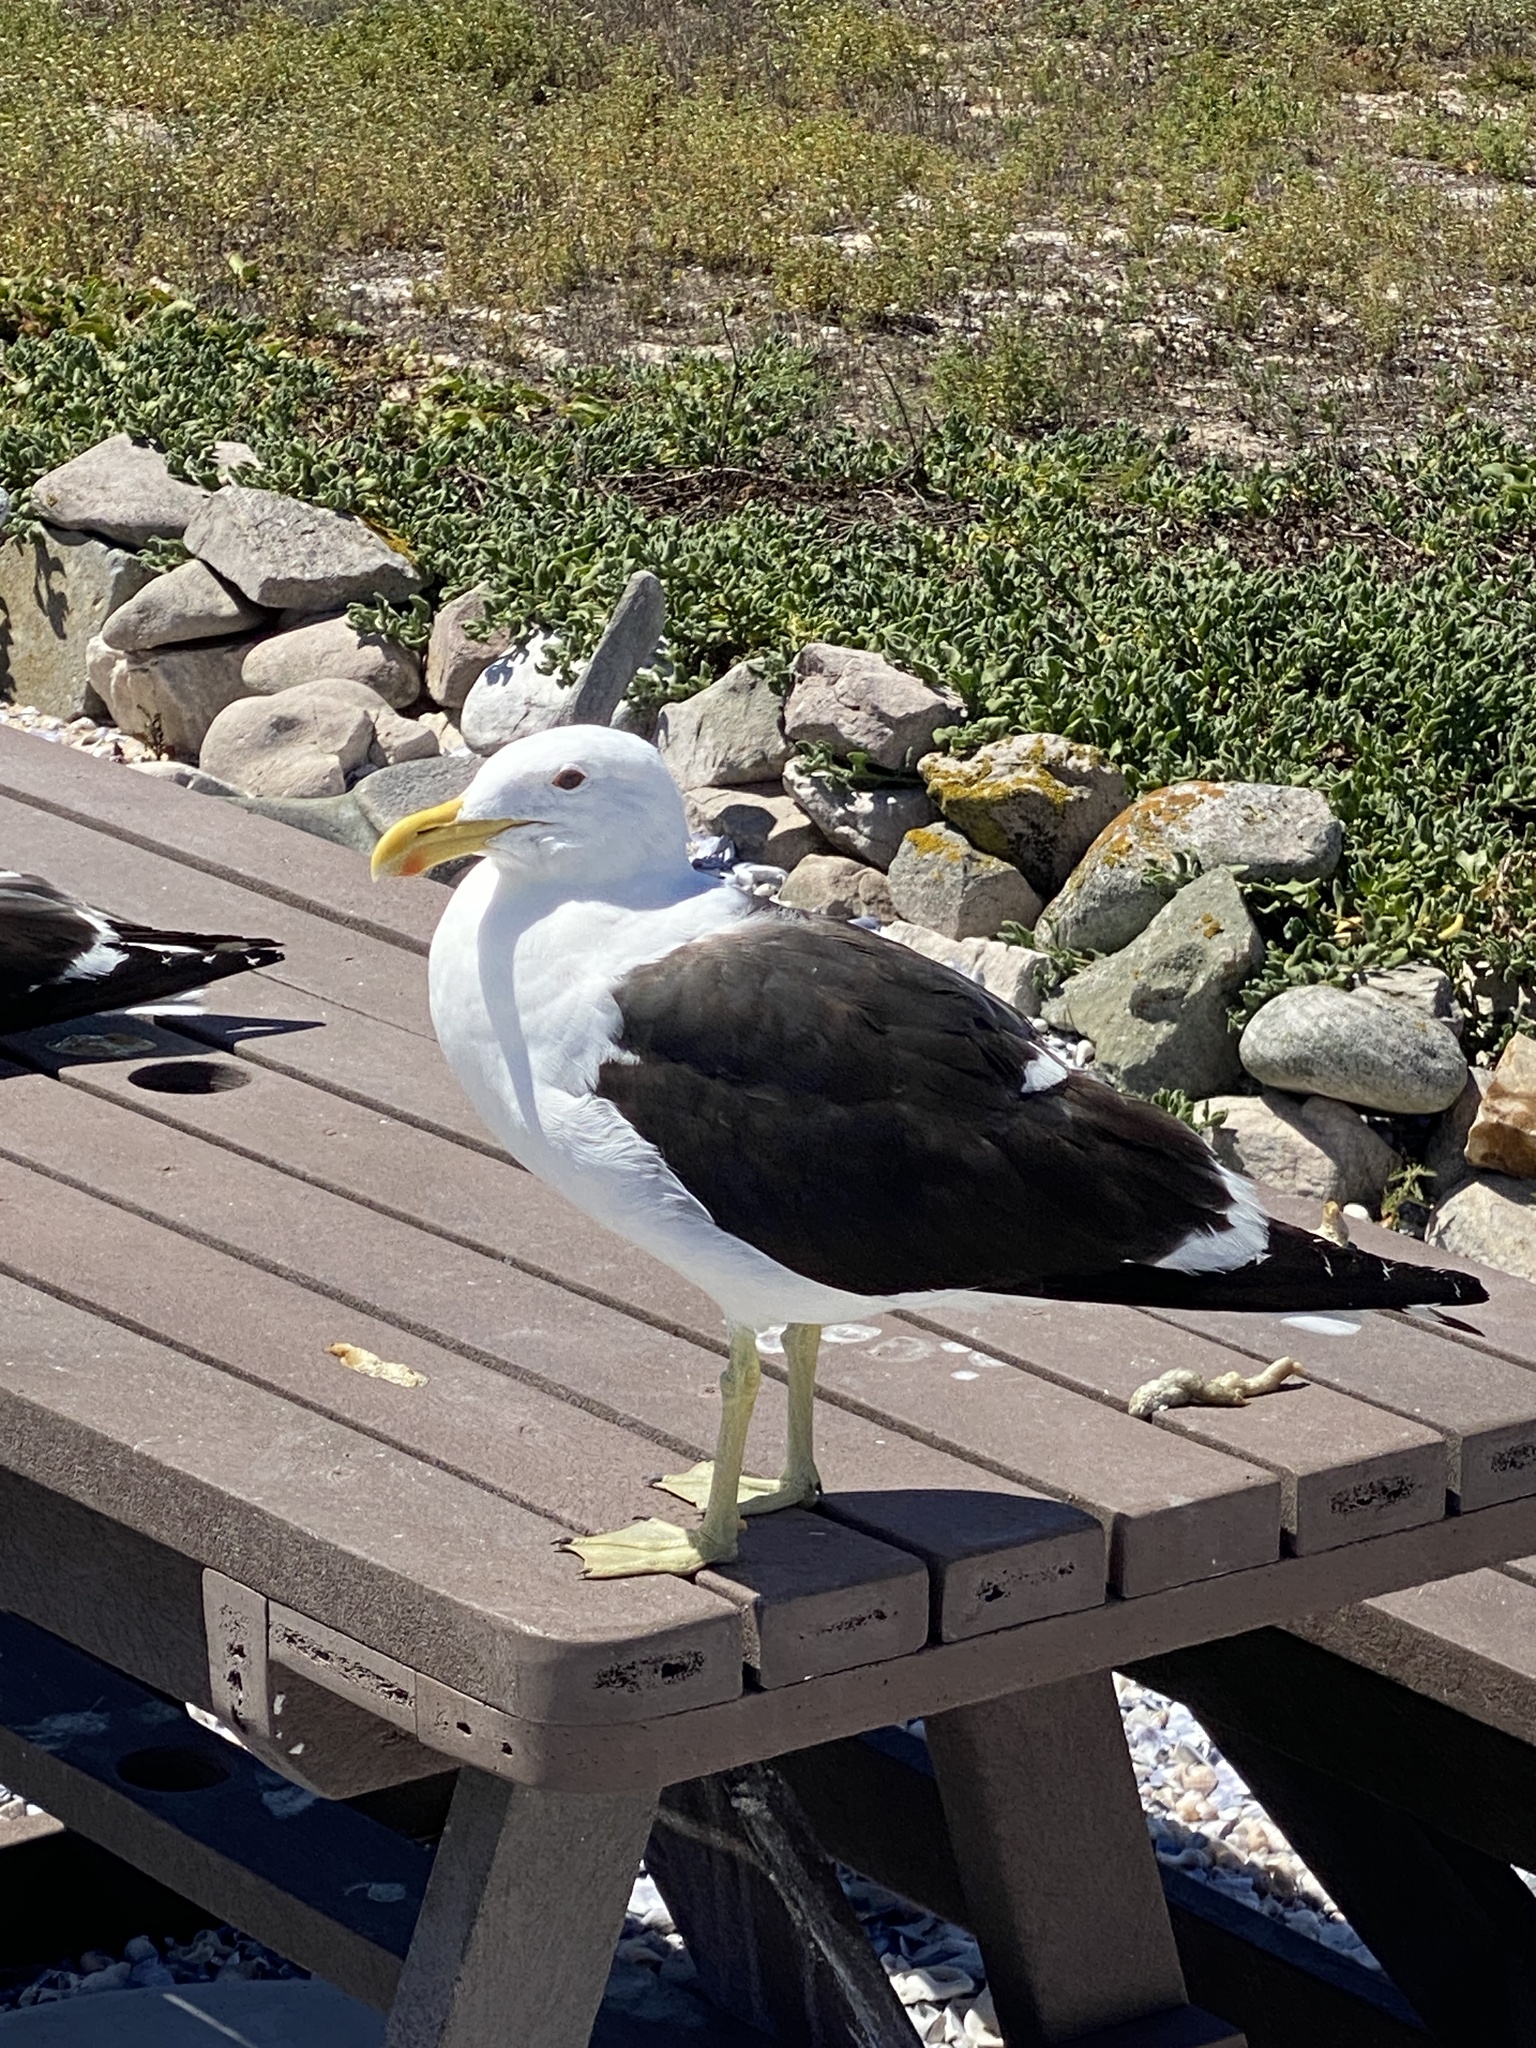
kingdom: Animalia
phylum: Chordata
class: Aves
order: Charadriiformes
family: Laridae
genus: Larus
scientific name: Larus dominicanus
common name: Kelp gull
